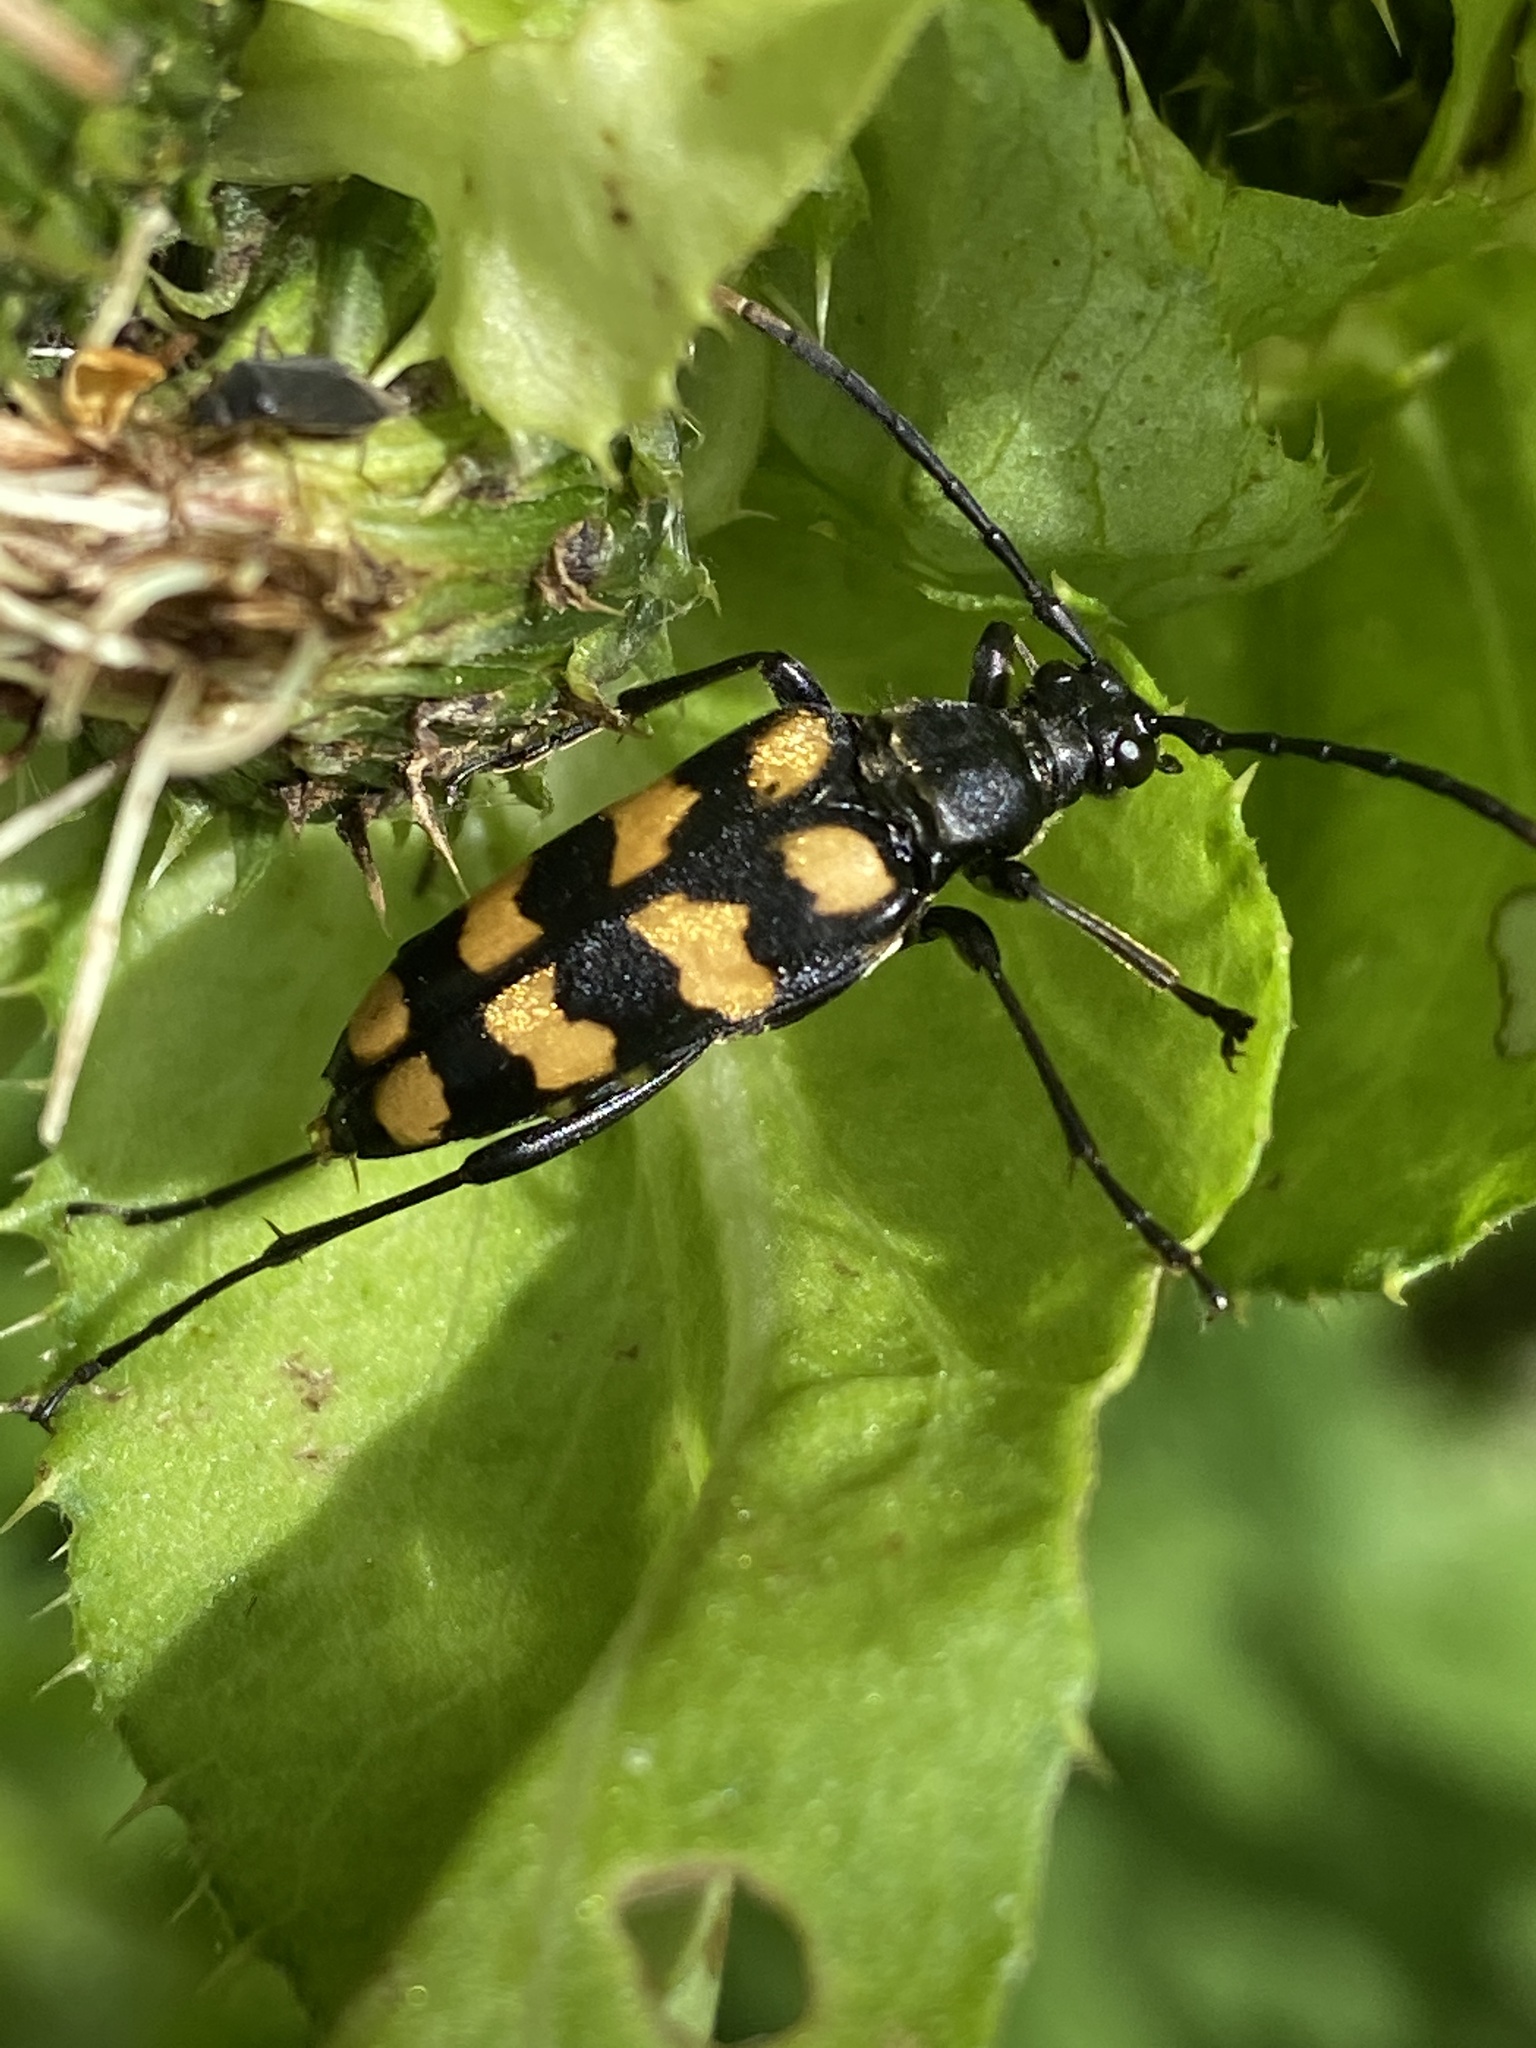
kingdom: Animalia
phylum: Arthropoda
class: Insecta
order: Coleoptera
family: Cerambycidae
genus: Leptura
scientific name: Leptura quadrifasciata
